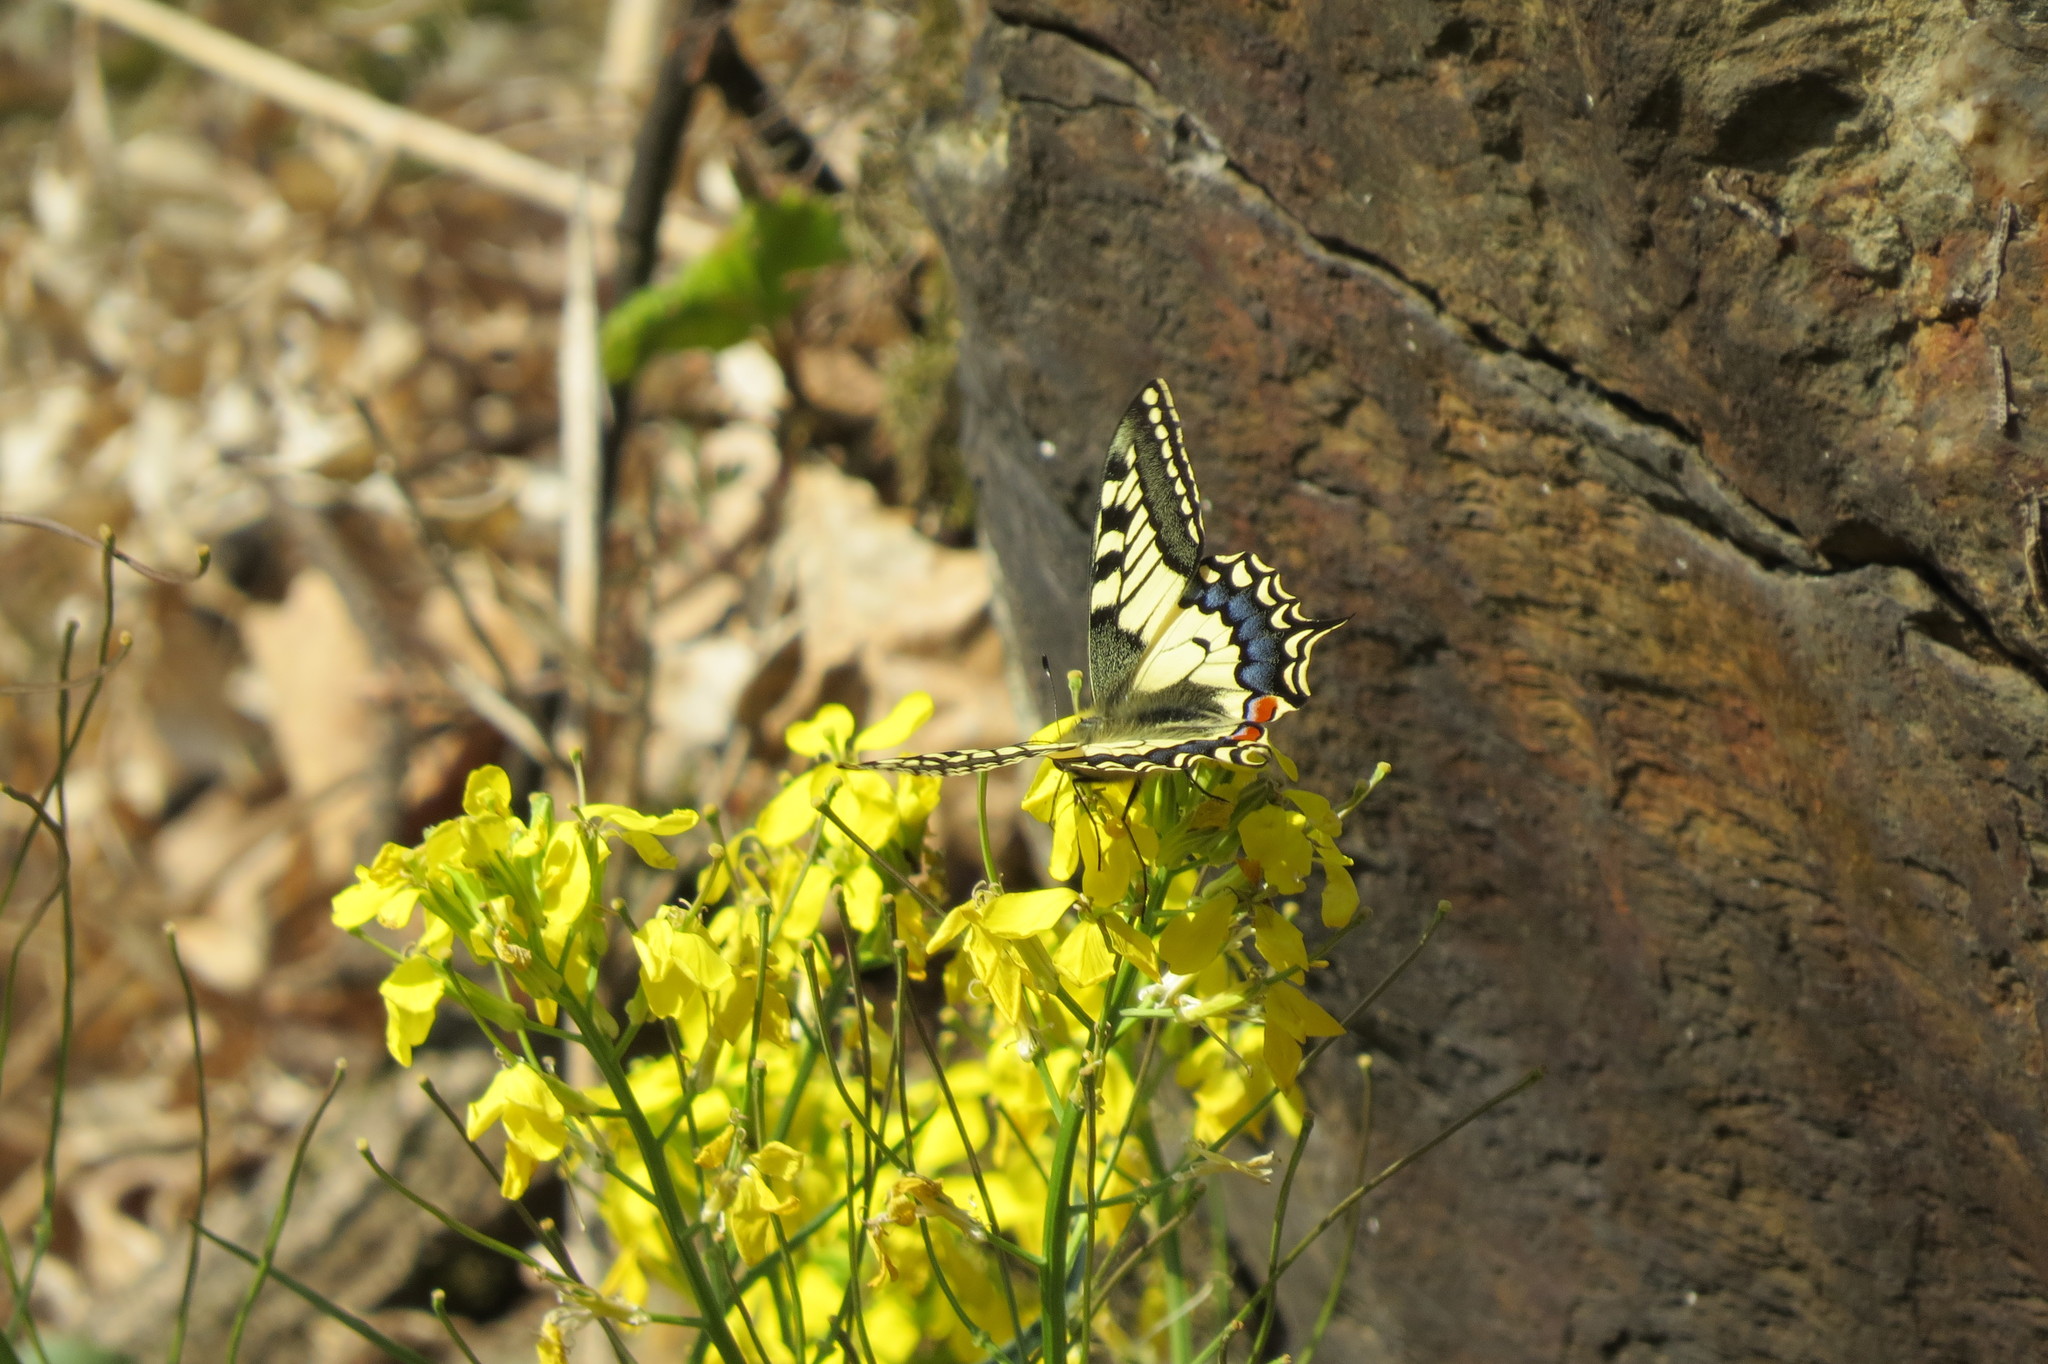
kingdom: Animalia
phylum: Arthropoda
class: Insecta
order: Lepidoptera
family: Papilionidae
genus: Papilio
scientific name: Papilio machaon
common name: Swallowtail
